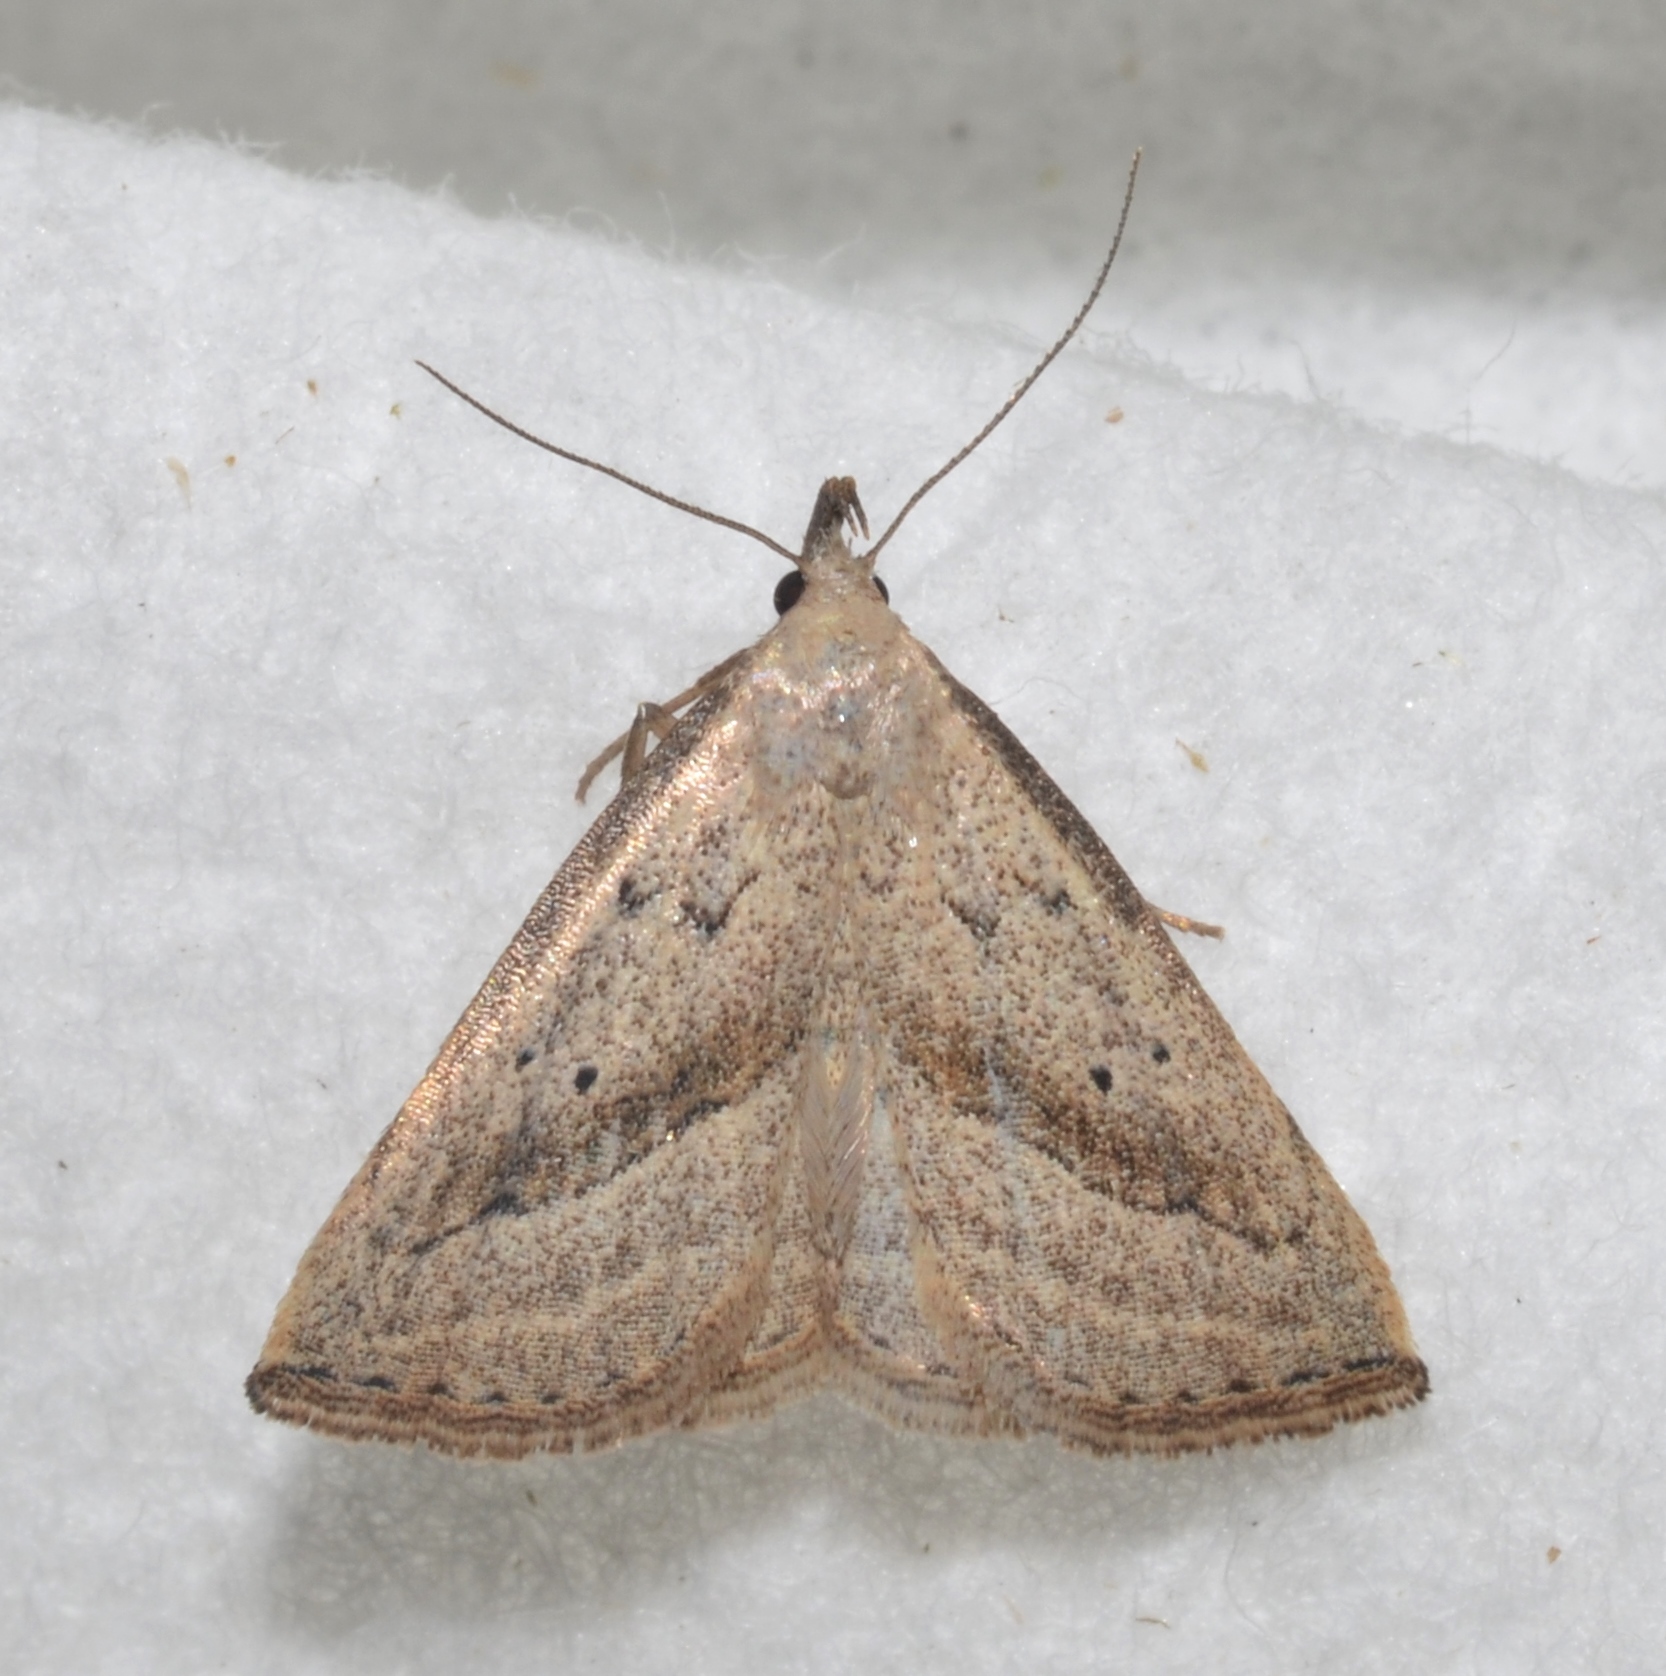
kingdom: Animalia
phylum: Arthropoda
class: Insecta
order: Lepidoptera
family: Erebidae
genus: Macrochilo
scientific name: Macrochilo hypocritalis
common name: Twin-dotted owlet
